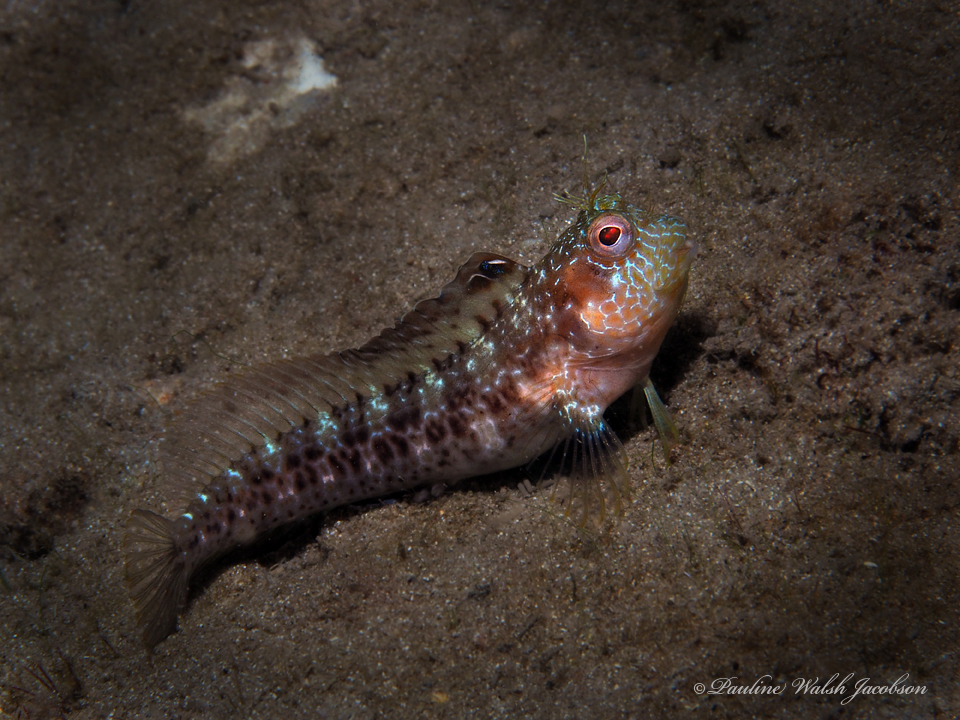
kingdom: Animalia
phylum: Chordata
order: Perciformes
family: Blenniidae
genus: Parablennius
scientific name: Parablennius marmoreus
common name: Seaweed blenny
